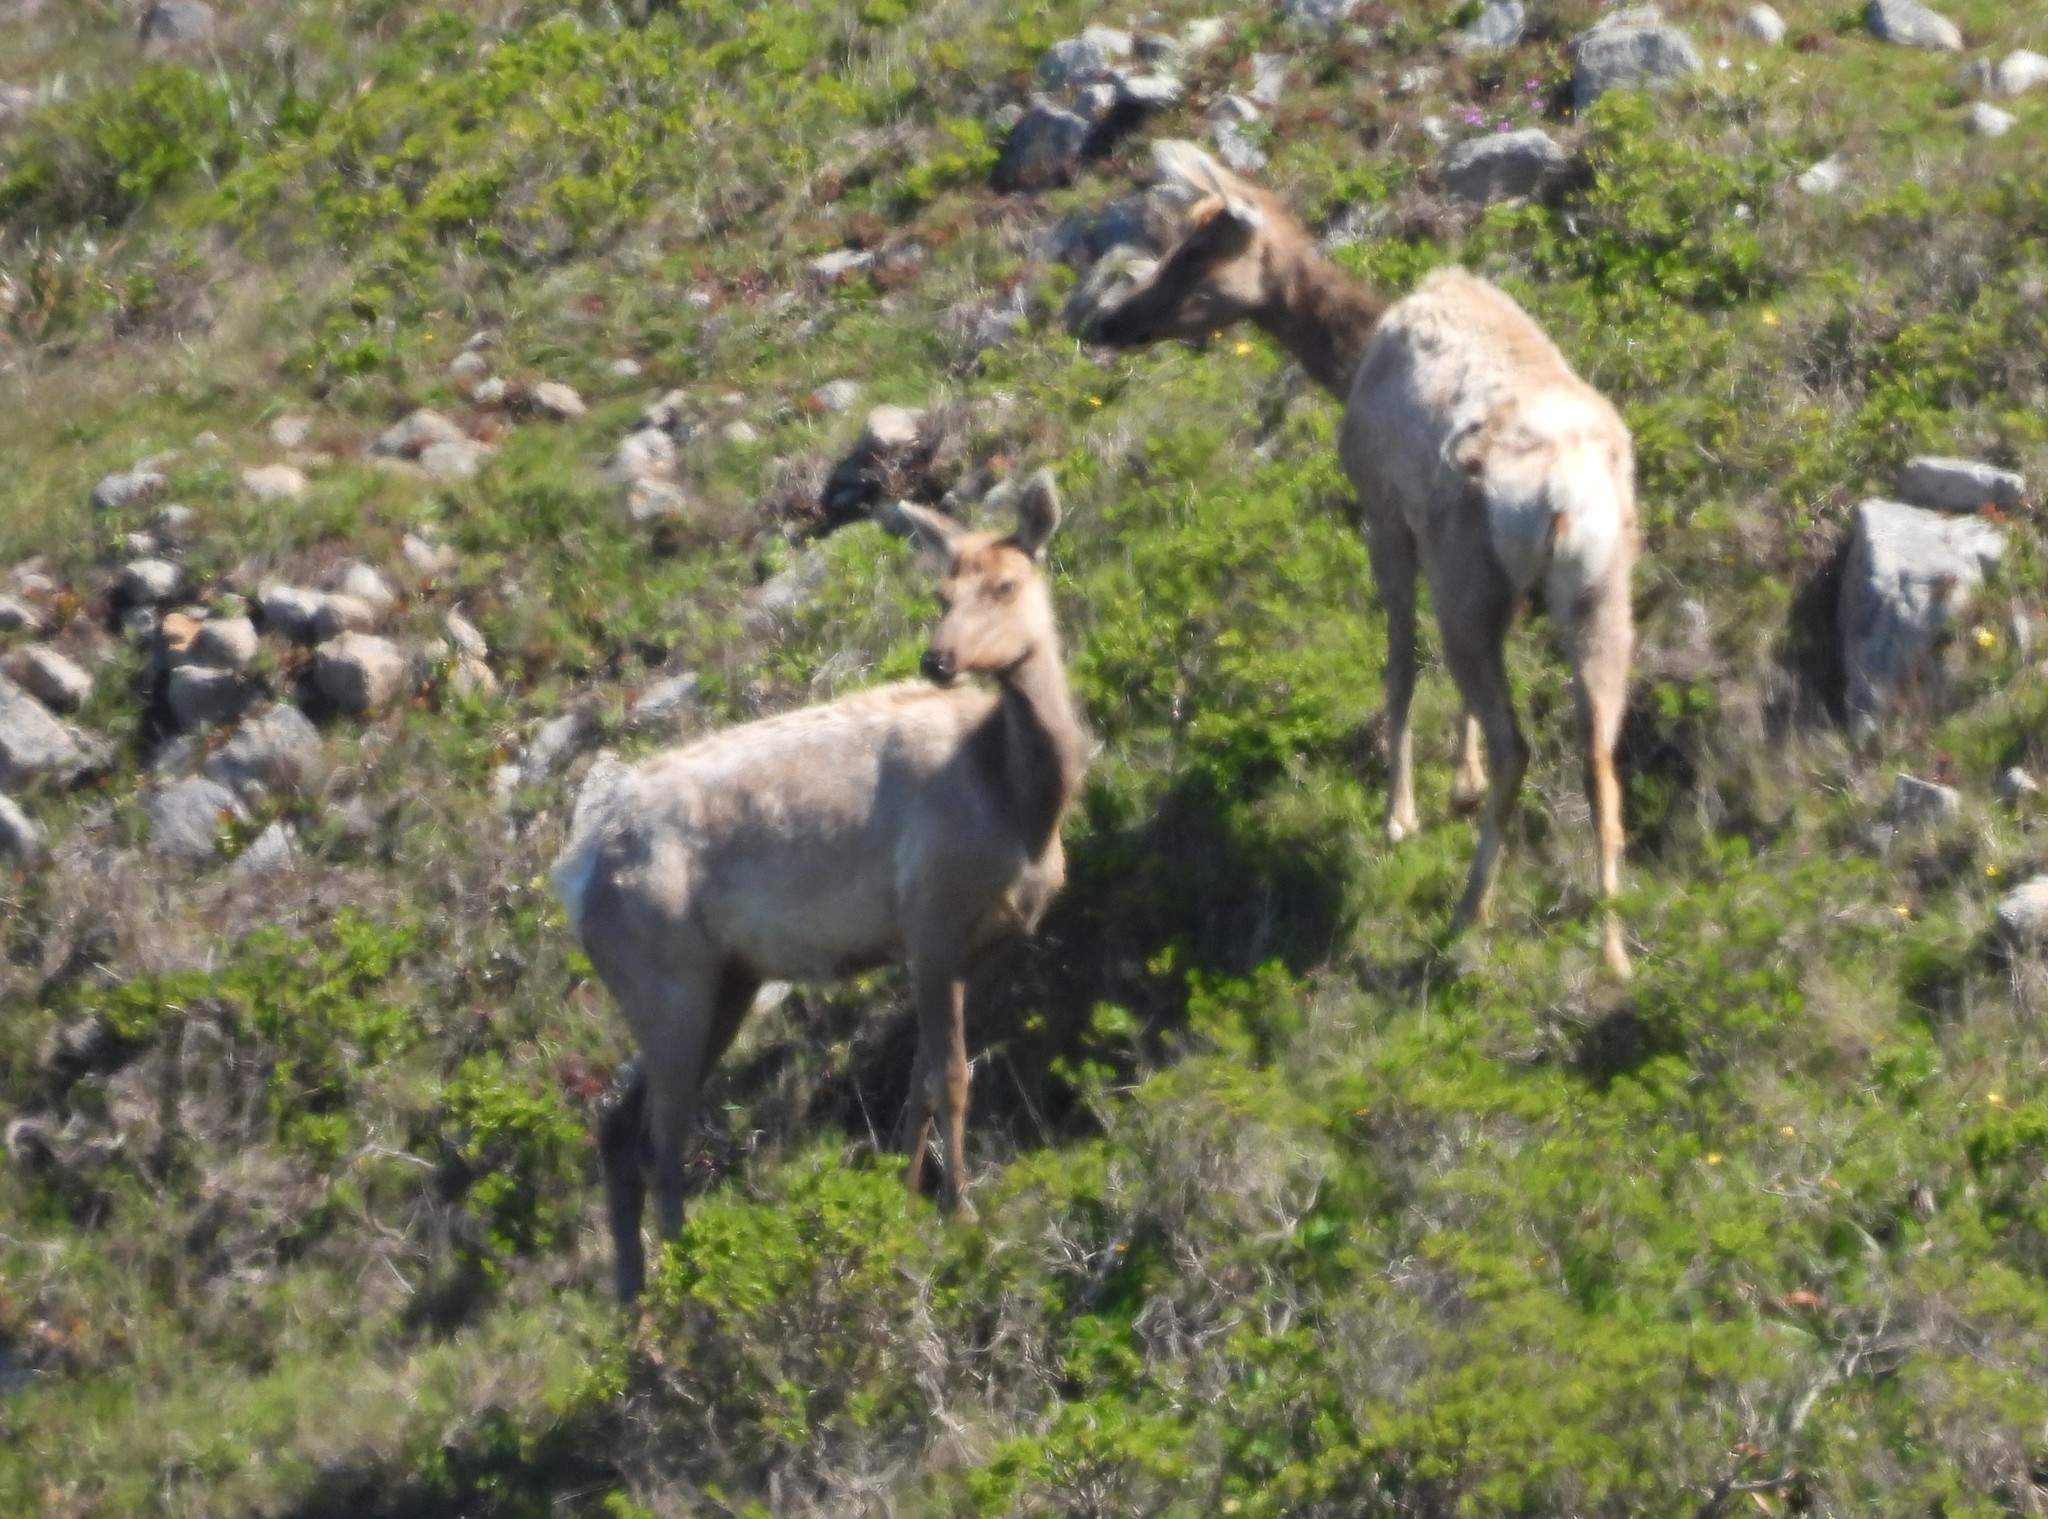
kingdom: Animalia
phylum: Chordata
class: Mammalia
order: Artiodactyla
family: Cervidae
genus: Cervus
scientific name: Cervus elaphus
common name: Red deer
